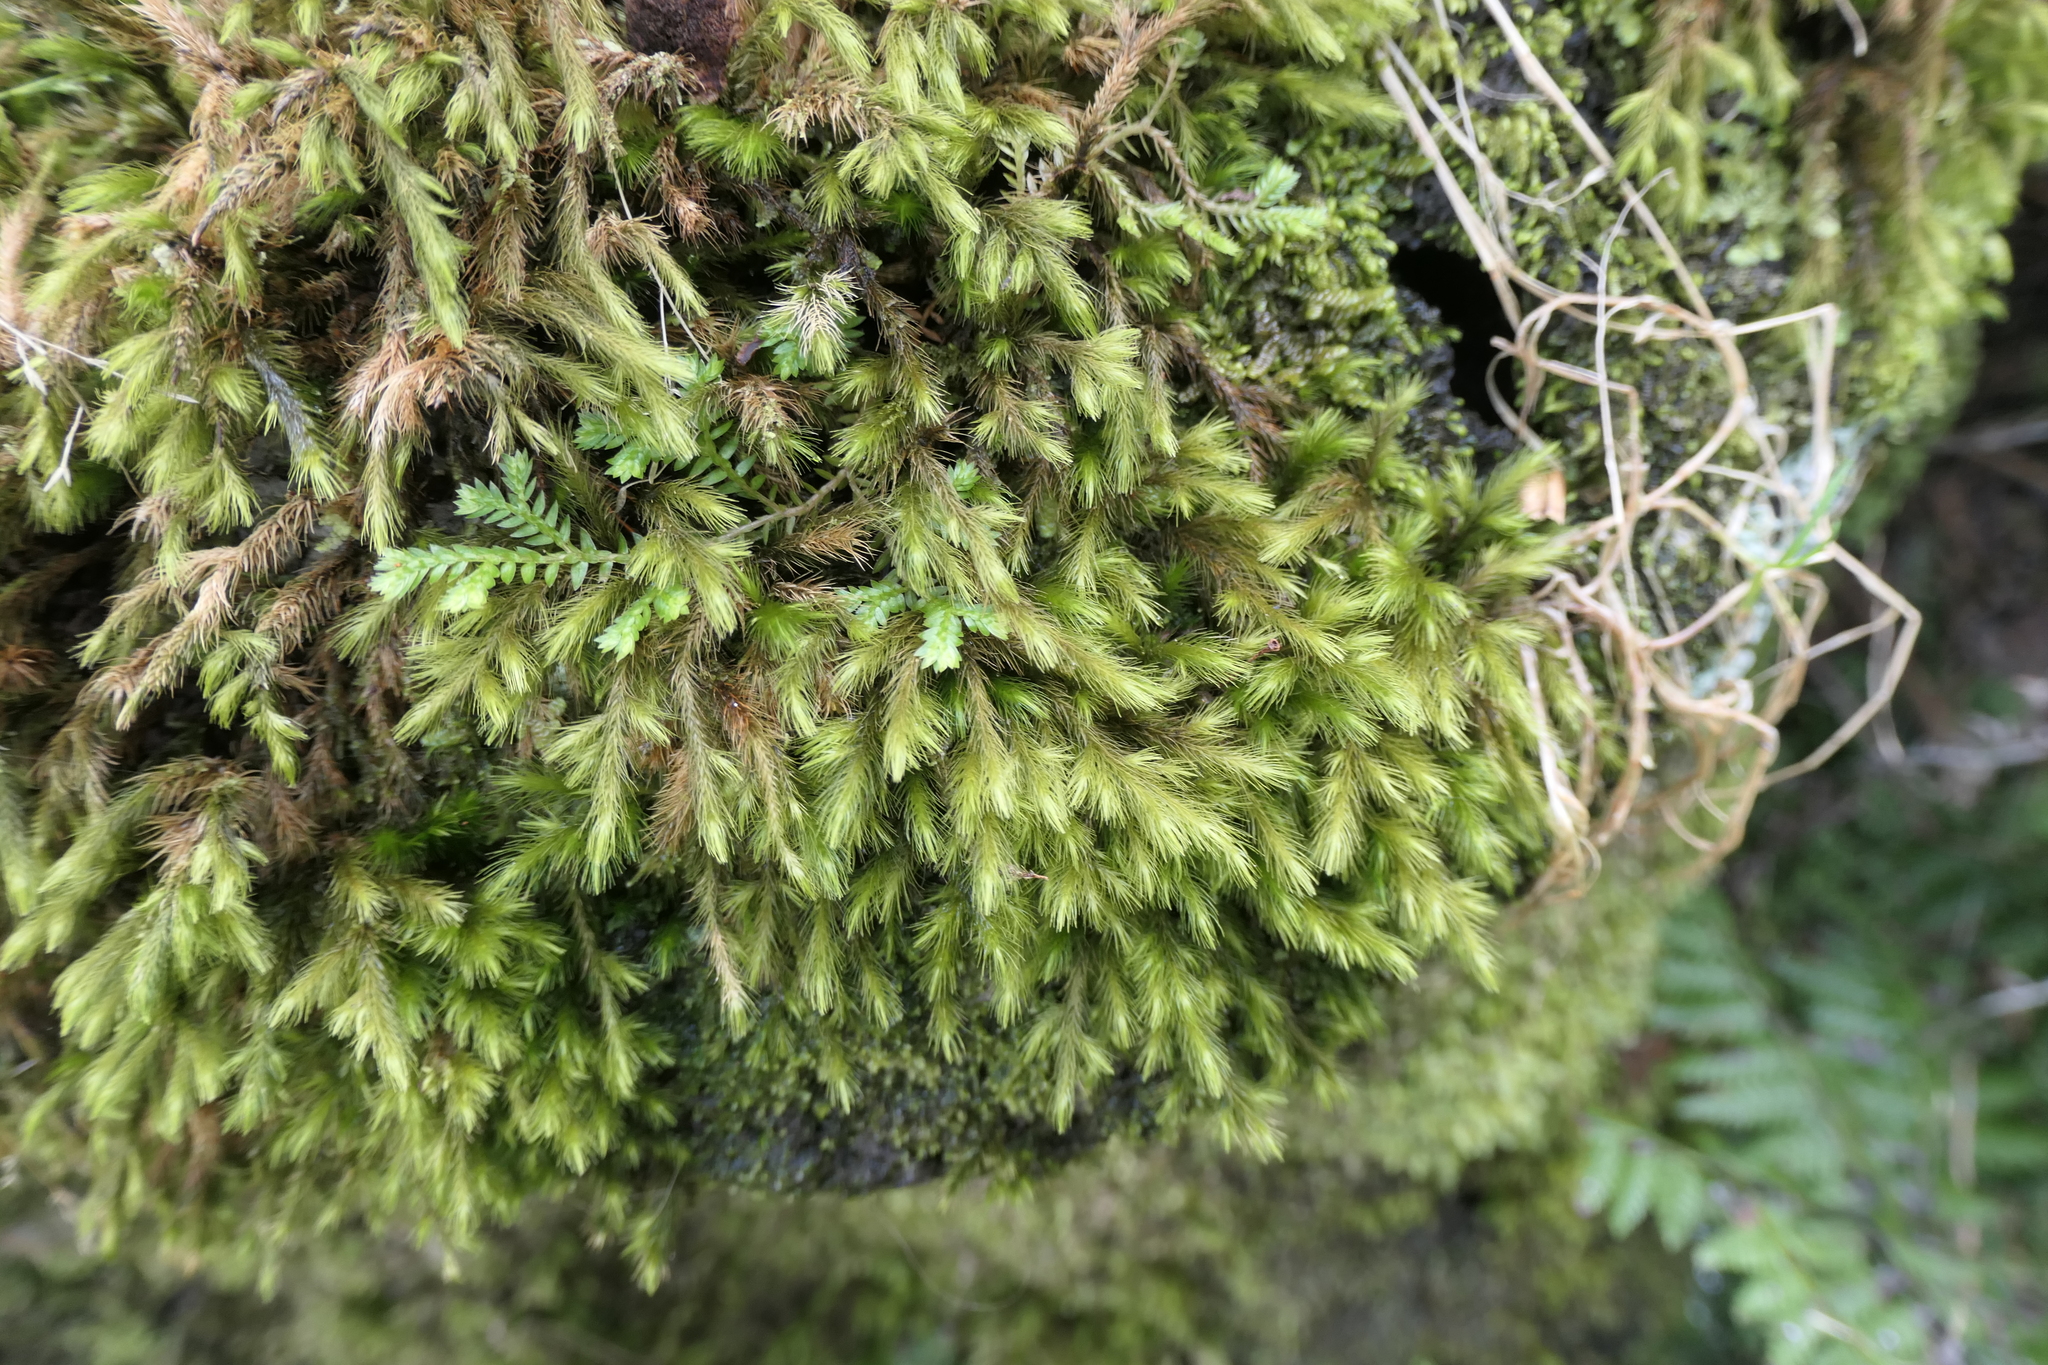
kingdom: Plantae
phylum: Bryophyta
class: Bryopsida
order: Hypnales
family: Echinodiaceae
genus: Echinodium
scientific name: Echinodium renauldii
